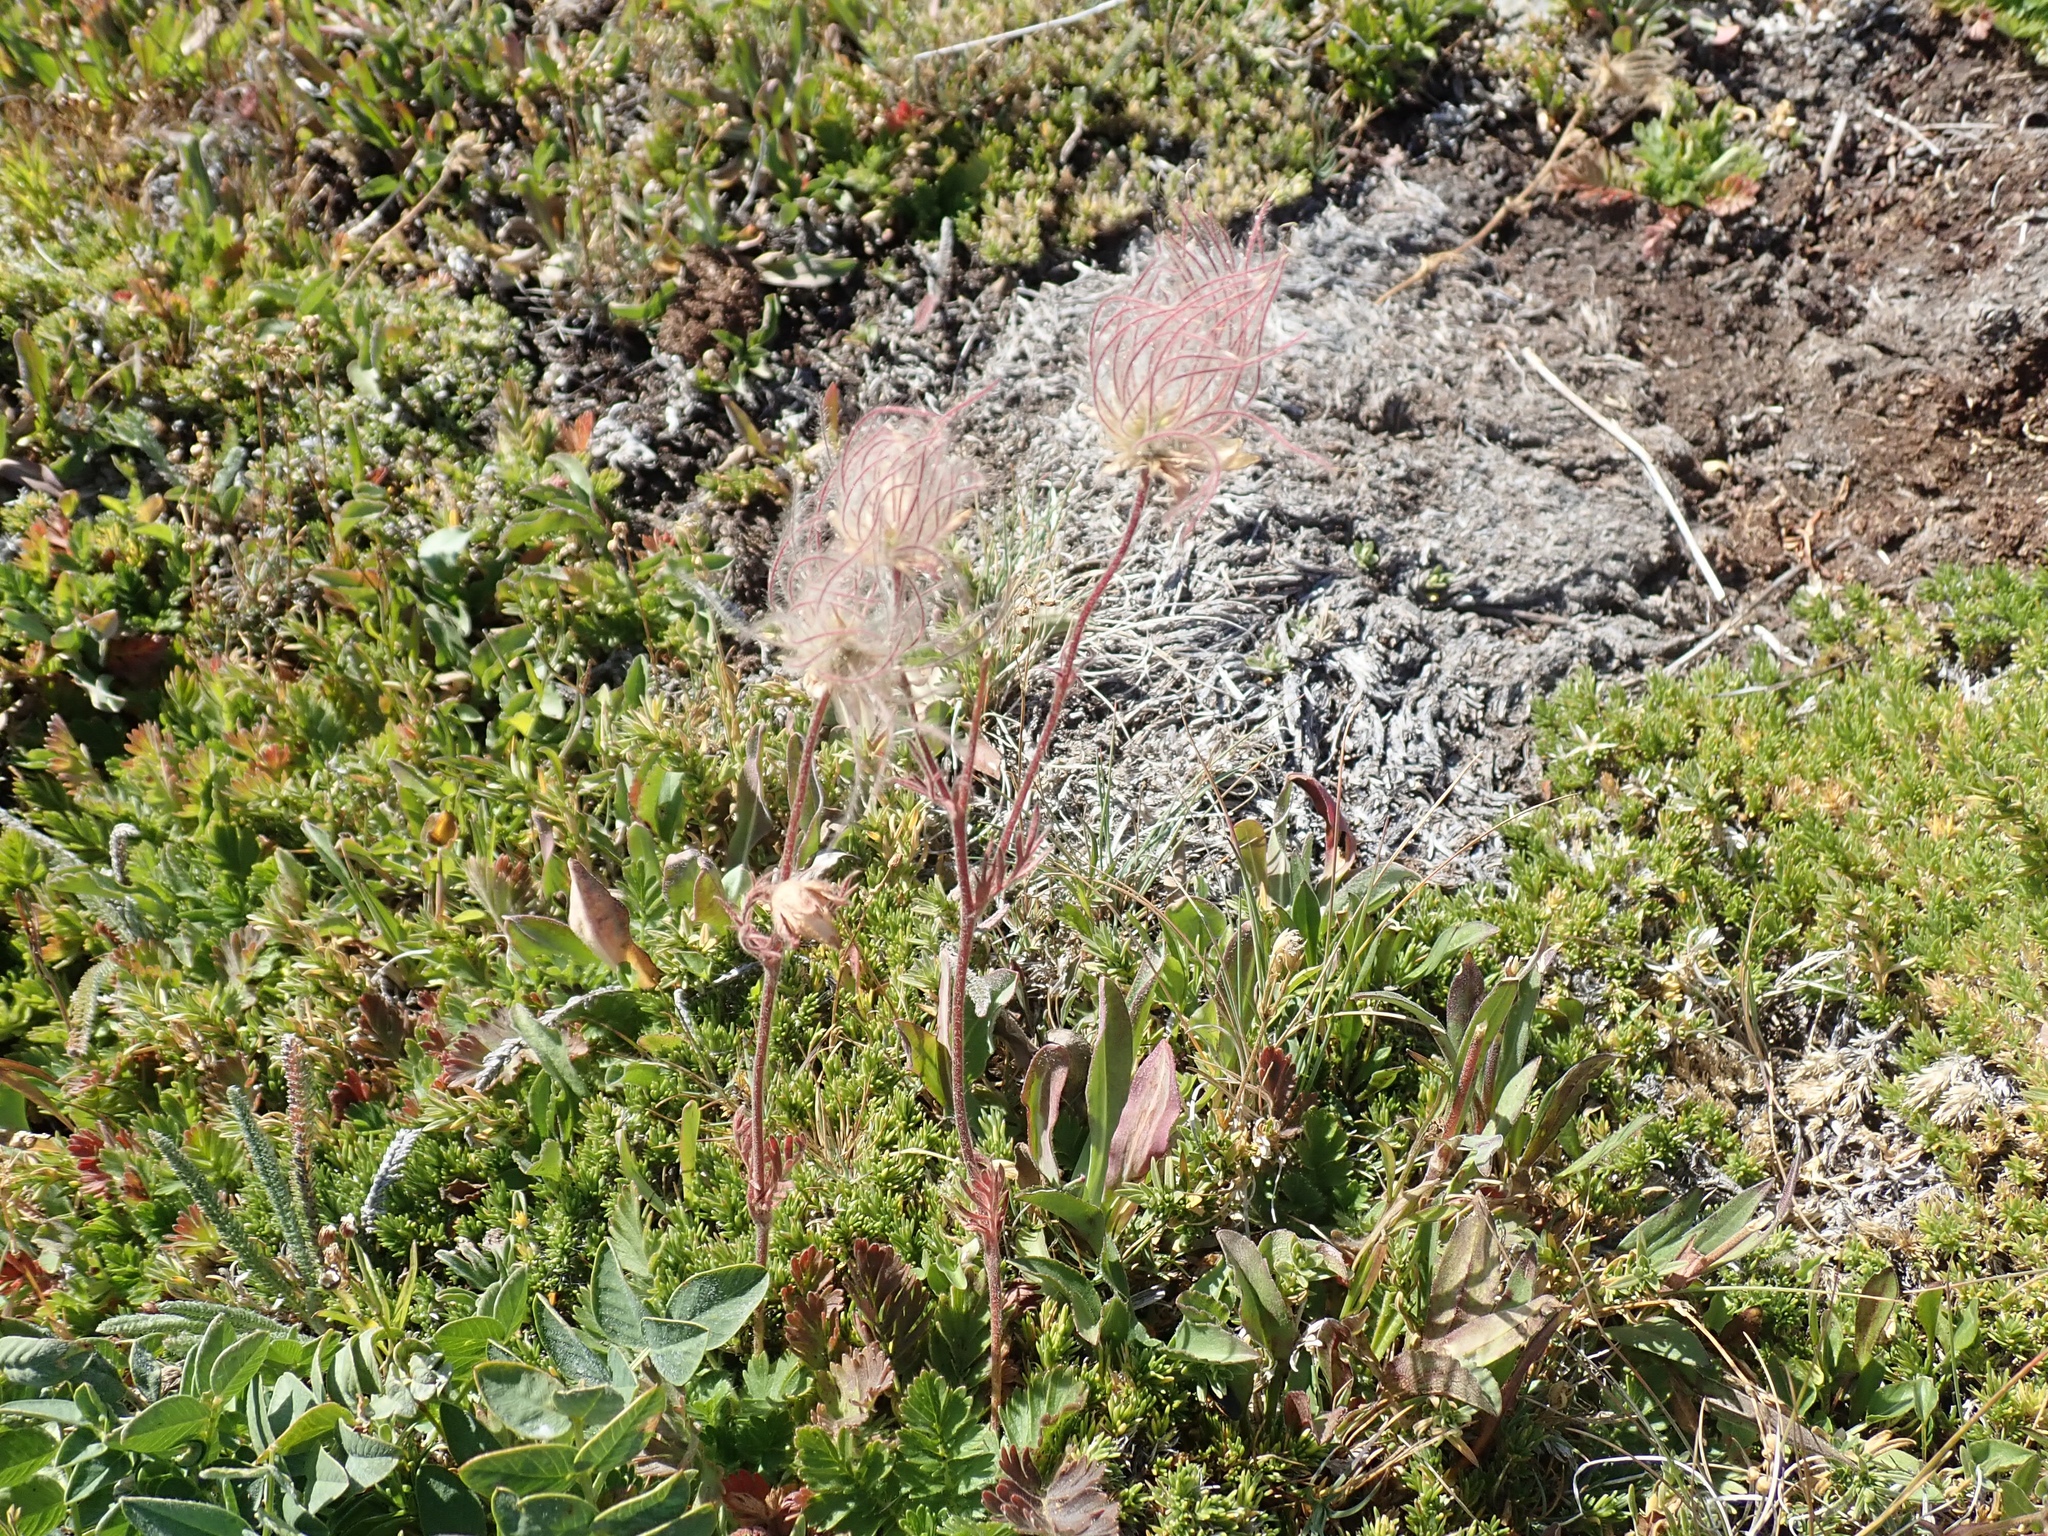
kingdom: Plantae
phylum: Tracheophyta
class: Magnoliopsida
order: Rosales
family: Rosaceae
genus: Geum
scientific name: Geum triflorum
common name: Old man's whiskers
